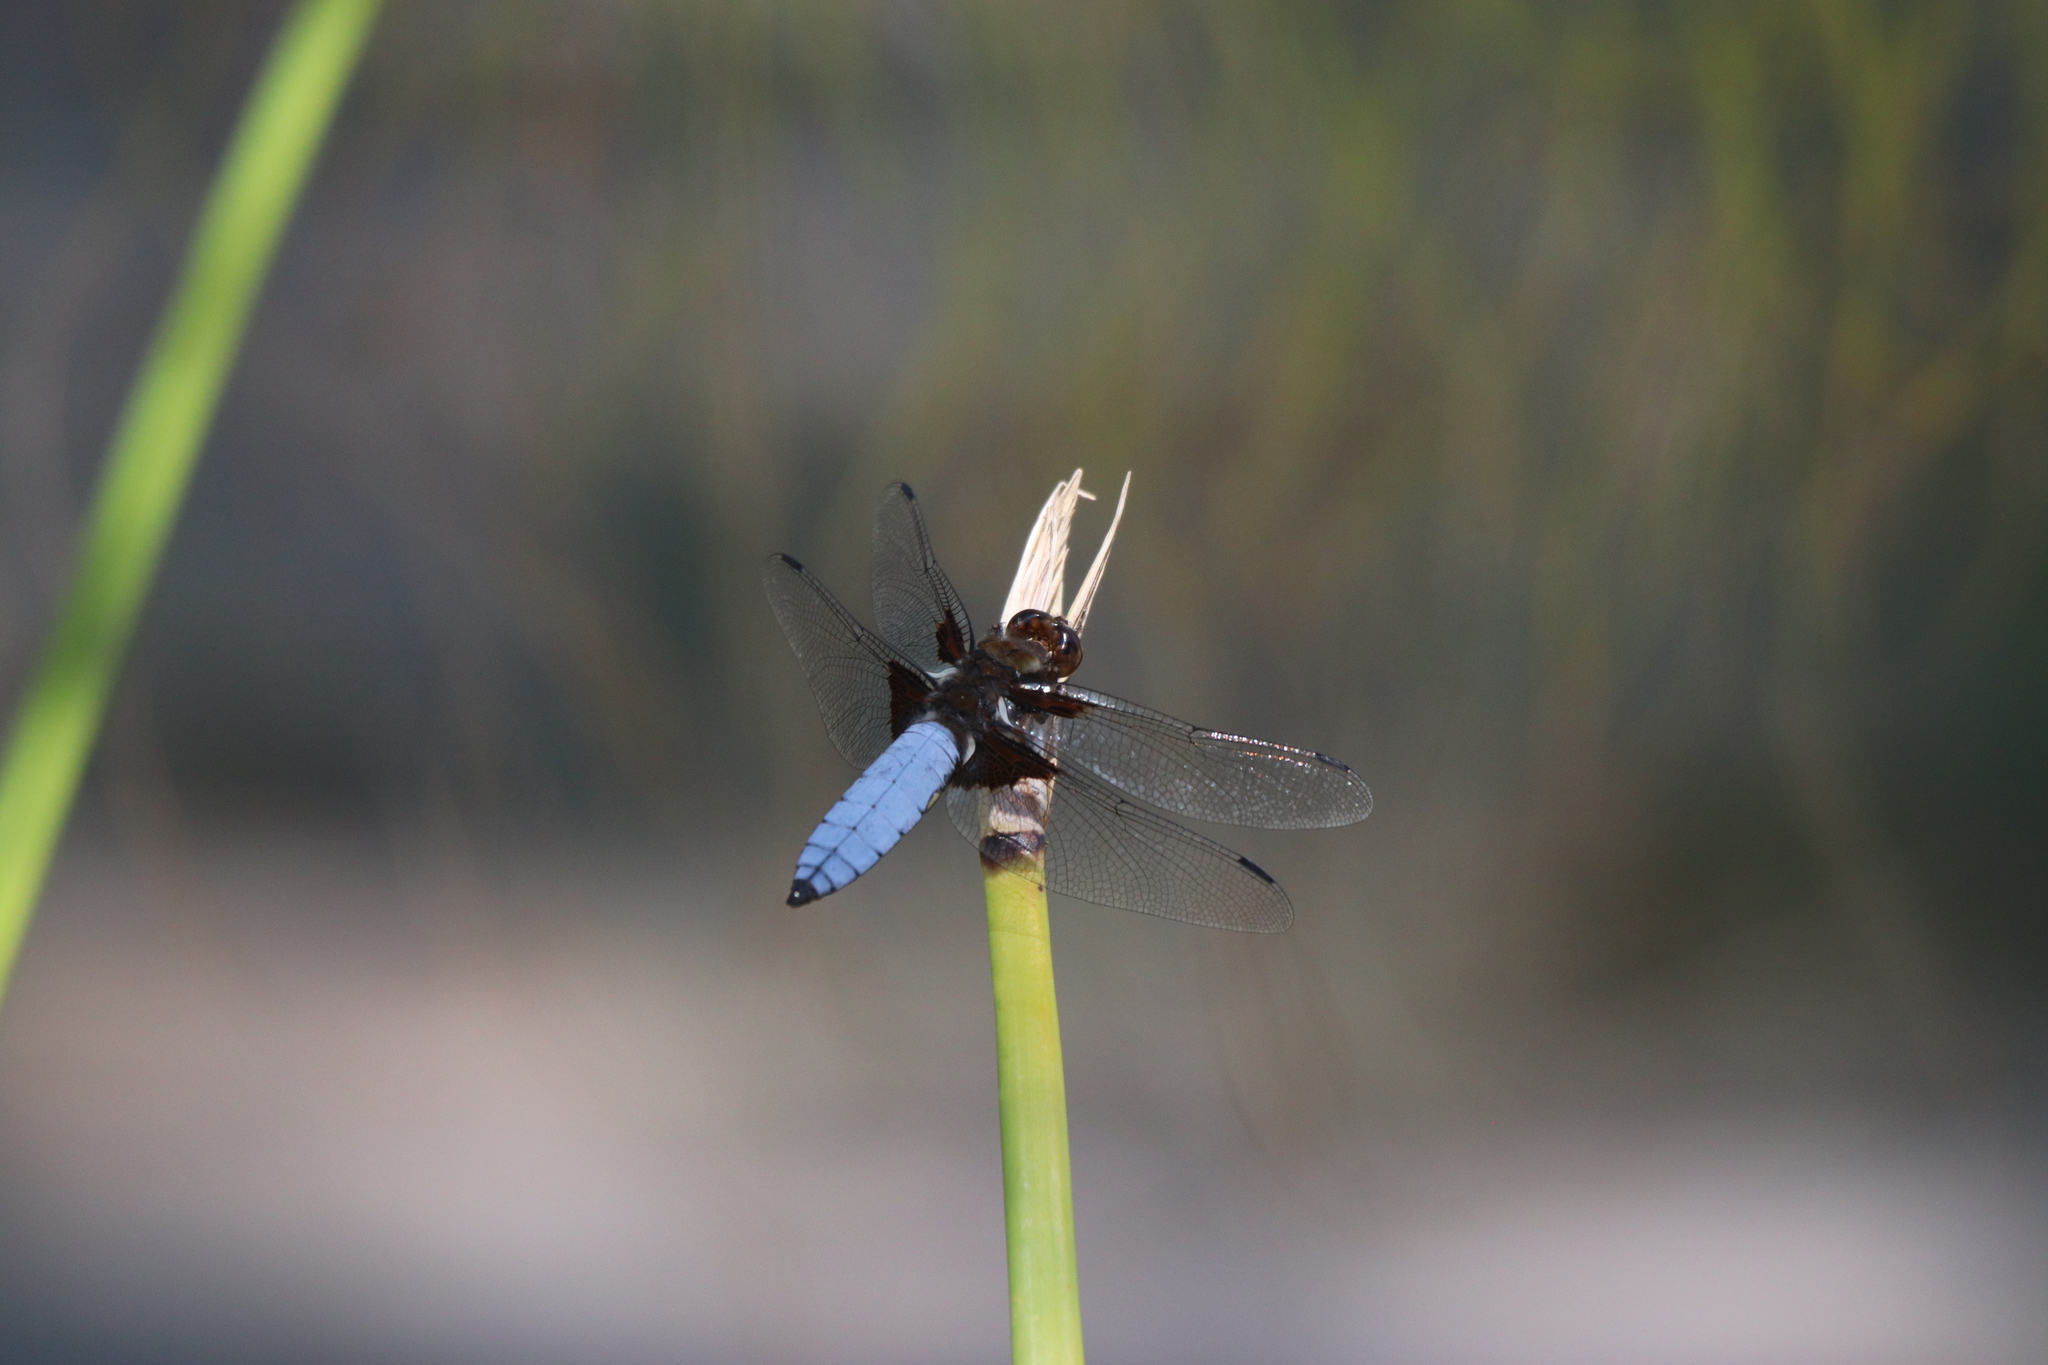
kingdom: Animalia
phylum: Arthropoda
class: Insecta
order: Odonata
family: Libellulidae
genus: Libellula
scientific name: Libellula depressa
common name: Broad-bodied chaser
